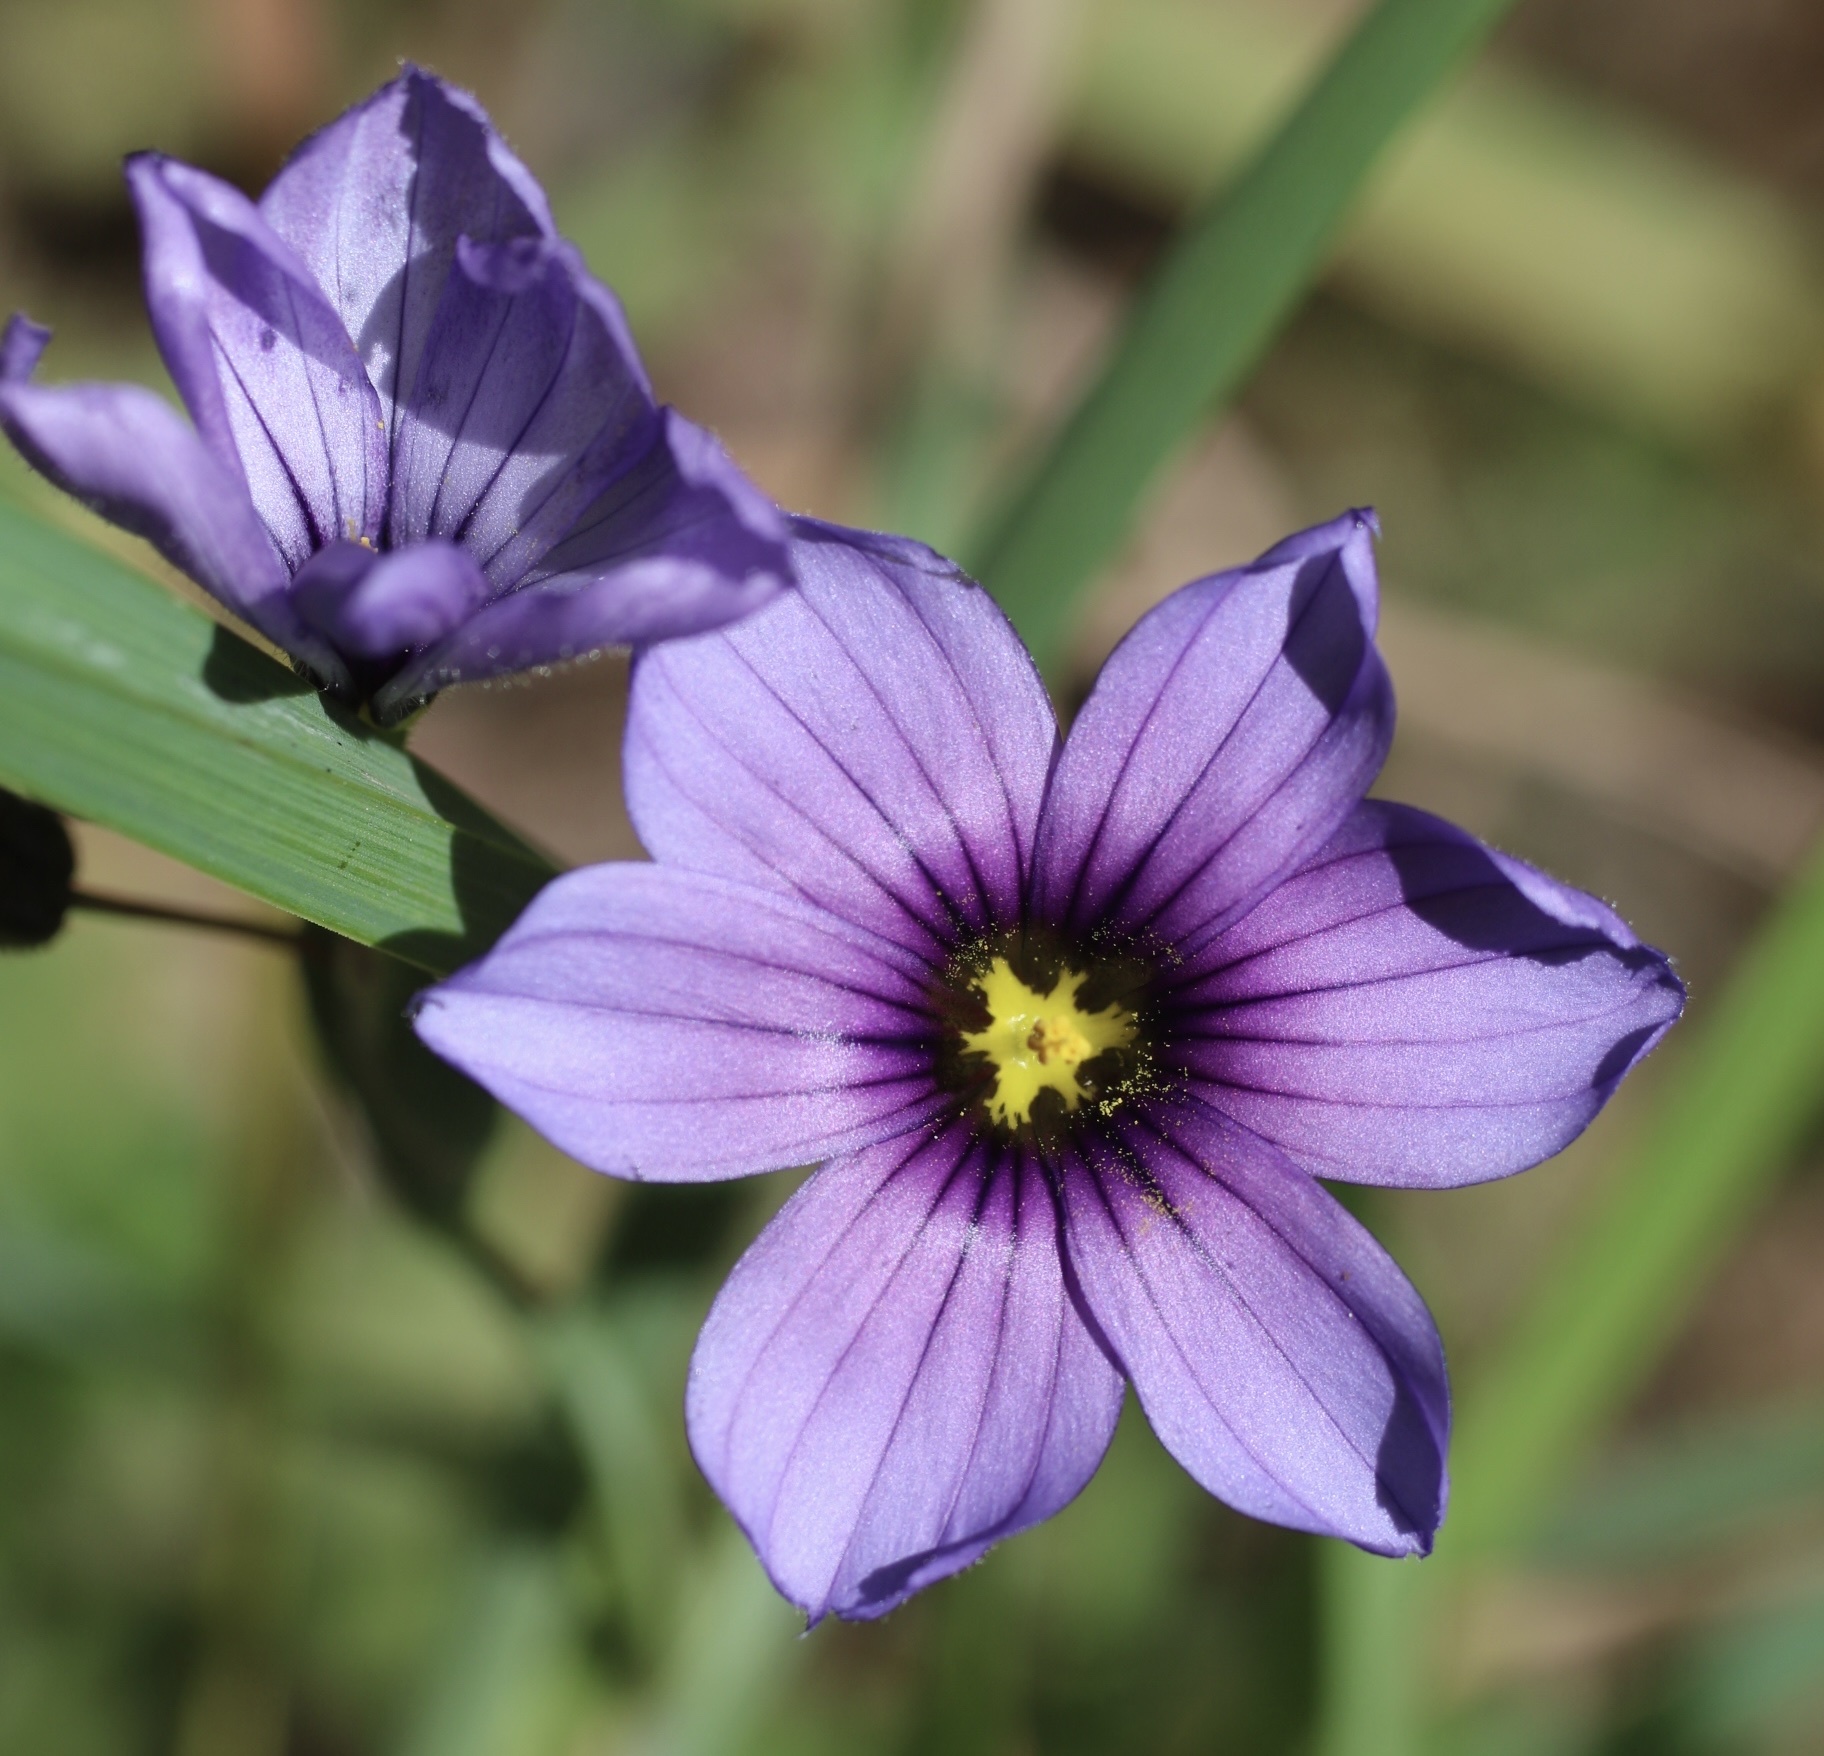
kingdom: Plantae
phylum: Tracheophyta
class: Liliopsida
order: Asparagales
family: Iridaceae
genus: Sisyrinchium
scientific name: Sisyrinchium bellum
